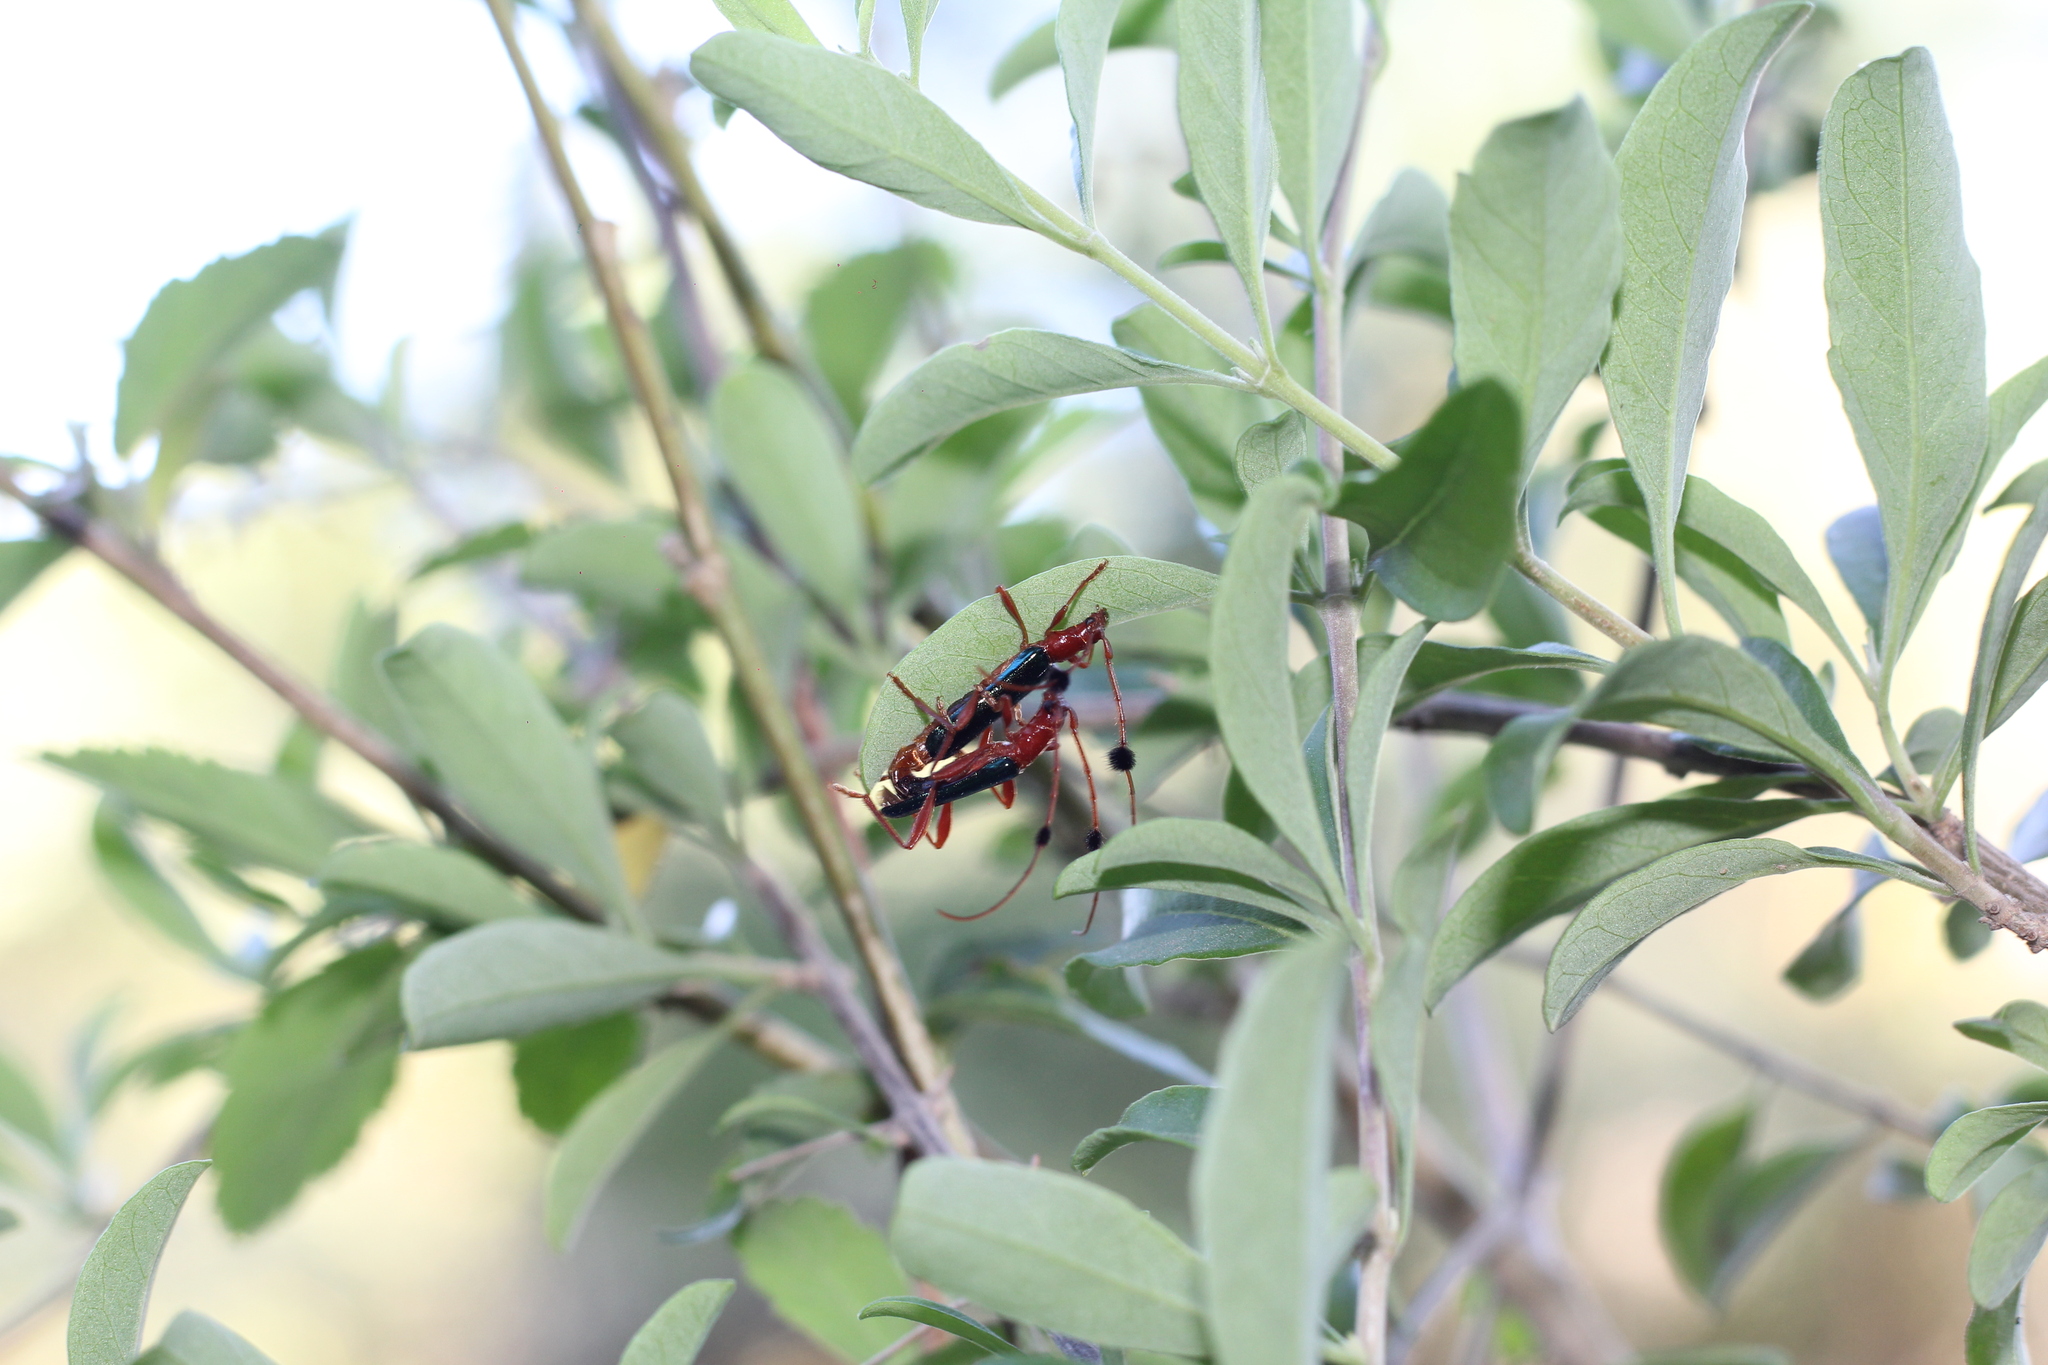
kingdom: Animalia
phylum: Arthropoda
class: Insecta
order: Coleoptera
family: Cerambycidae
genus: Paromoeocerus
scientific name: Paromoeocerus barbicornis
